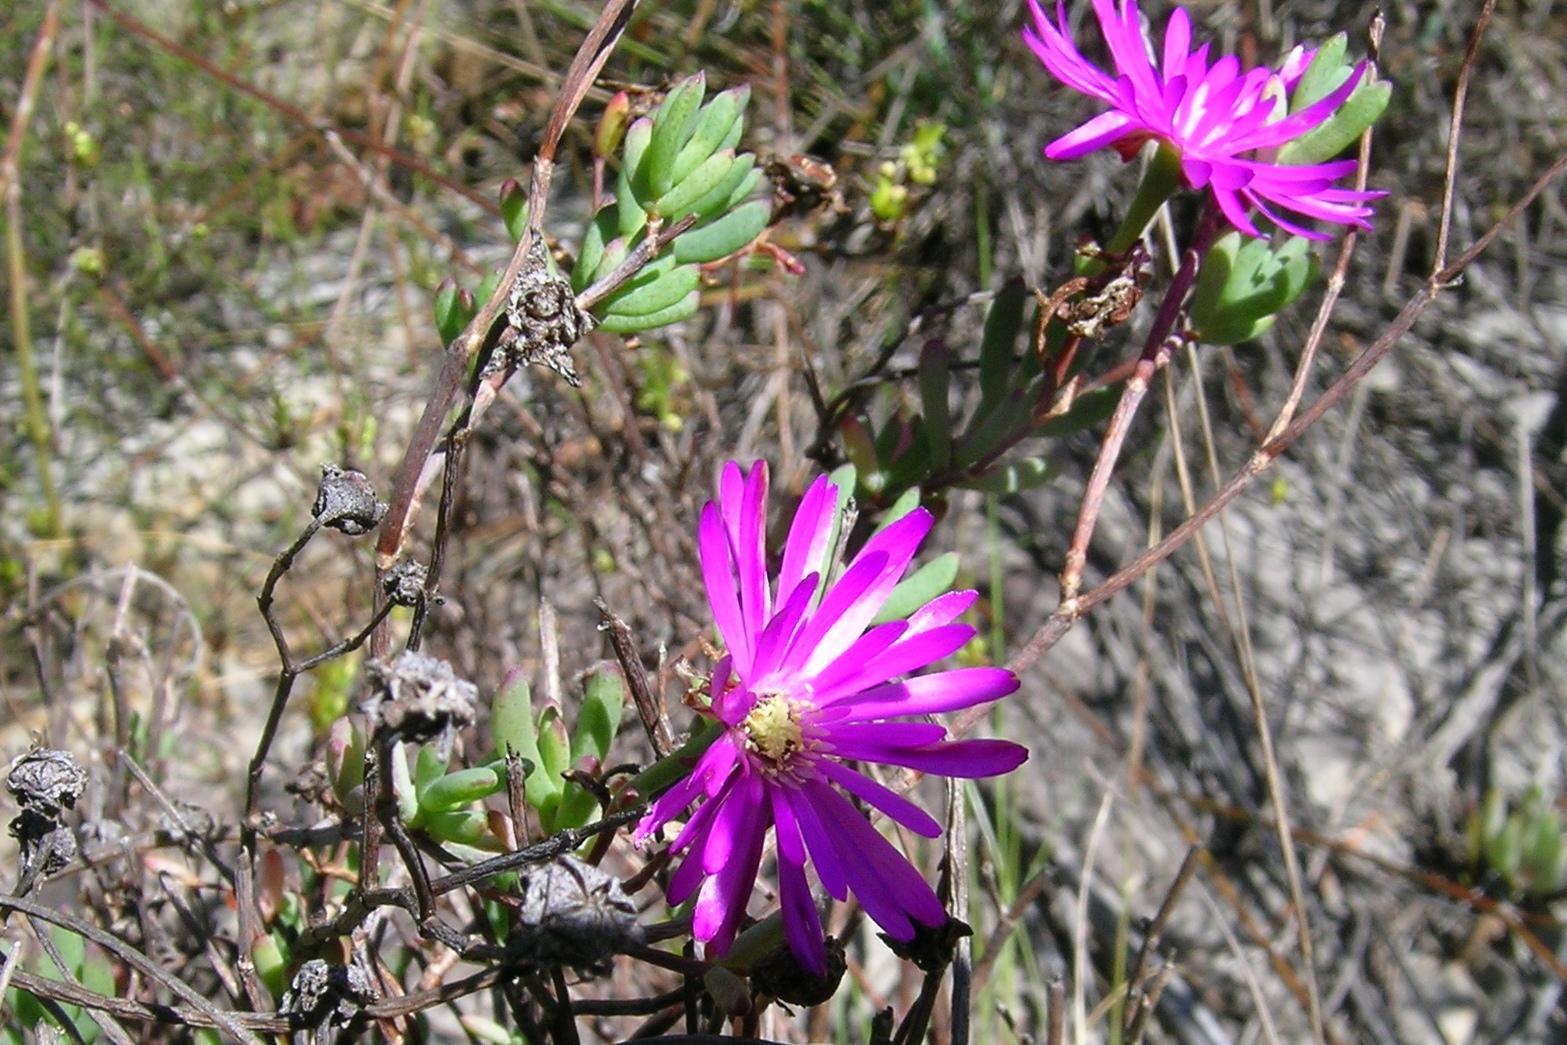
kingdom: Plantae
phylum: Tracheophyta
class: Magnoliopsida
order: Caryophyllales
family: Aizoaceae
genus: Lampranthus
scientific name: Lampranthus elegans
